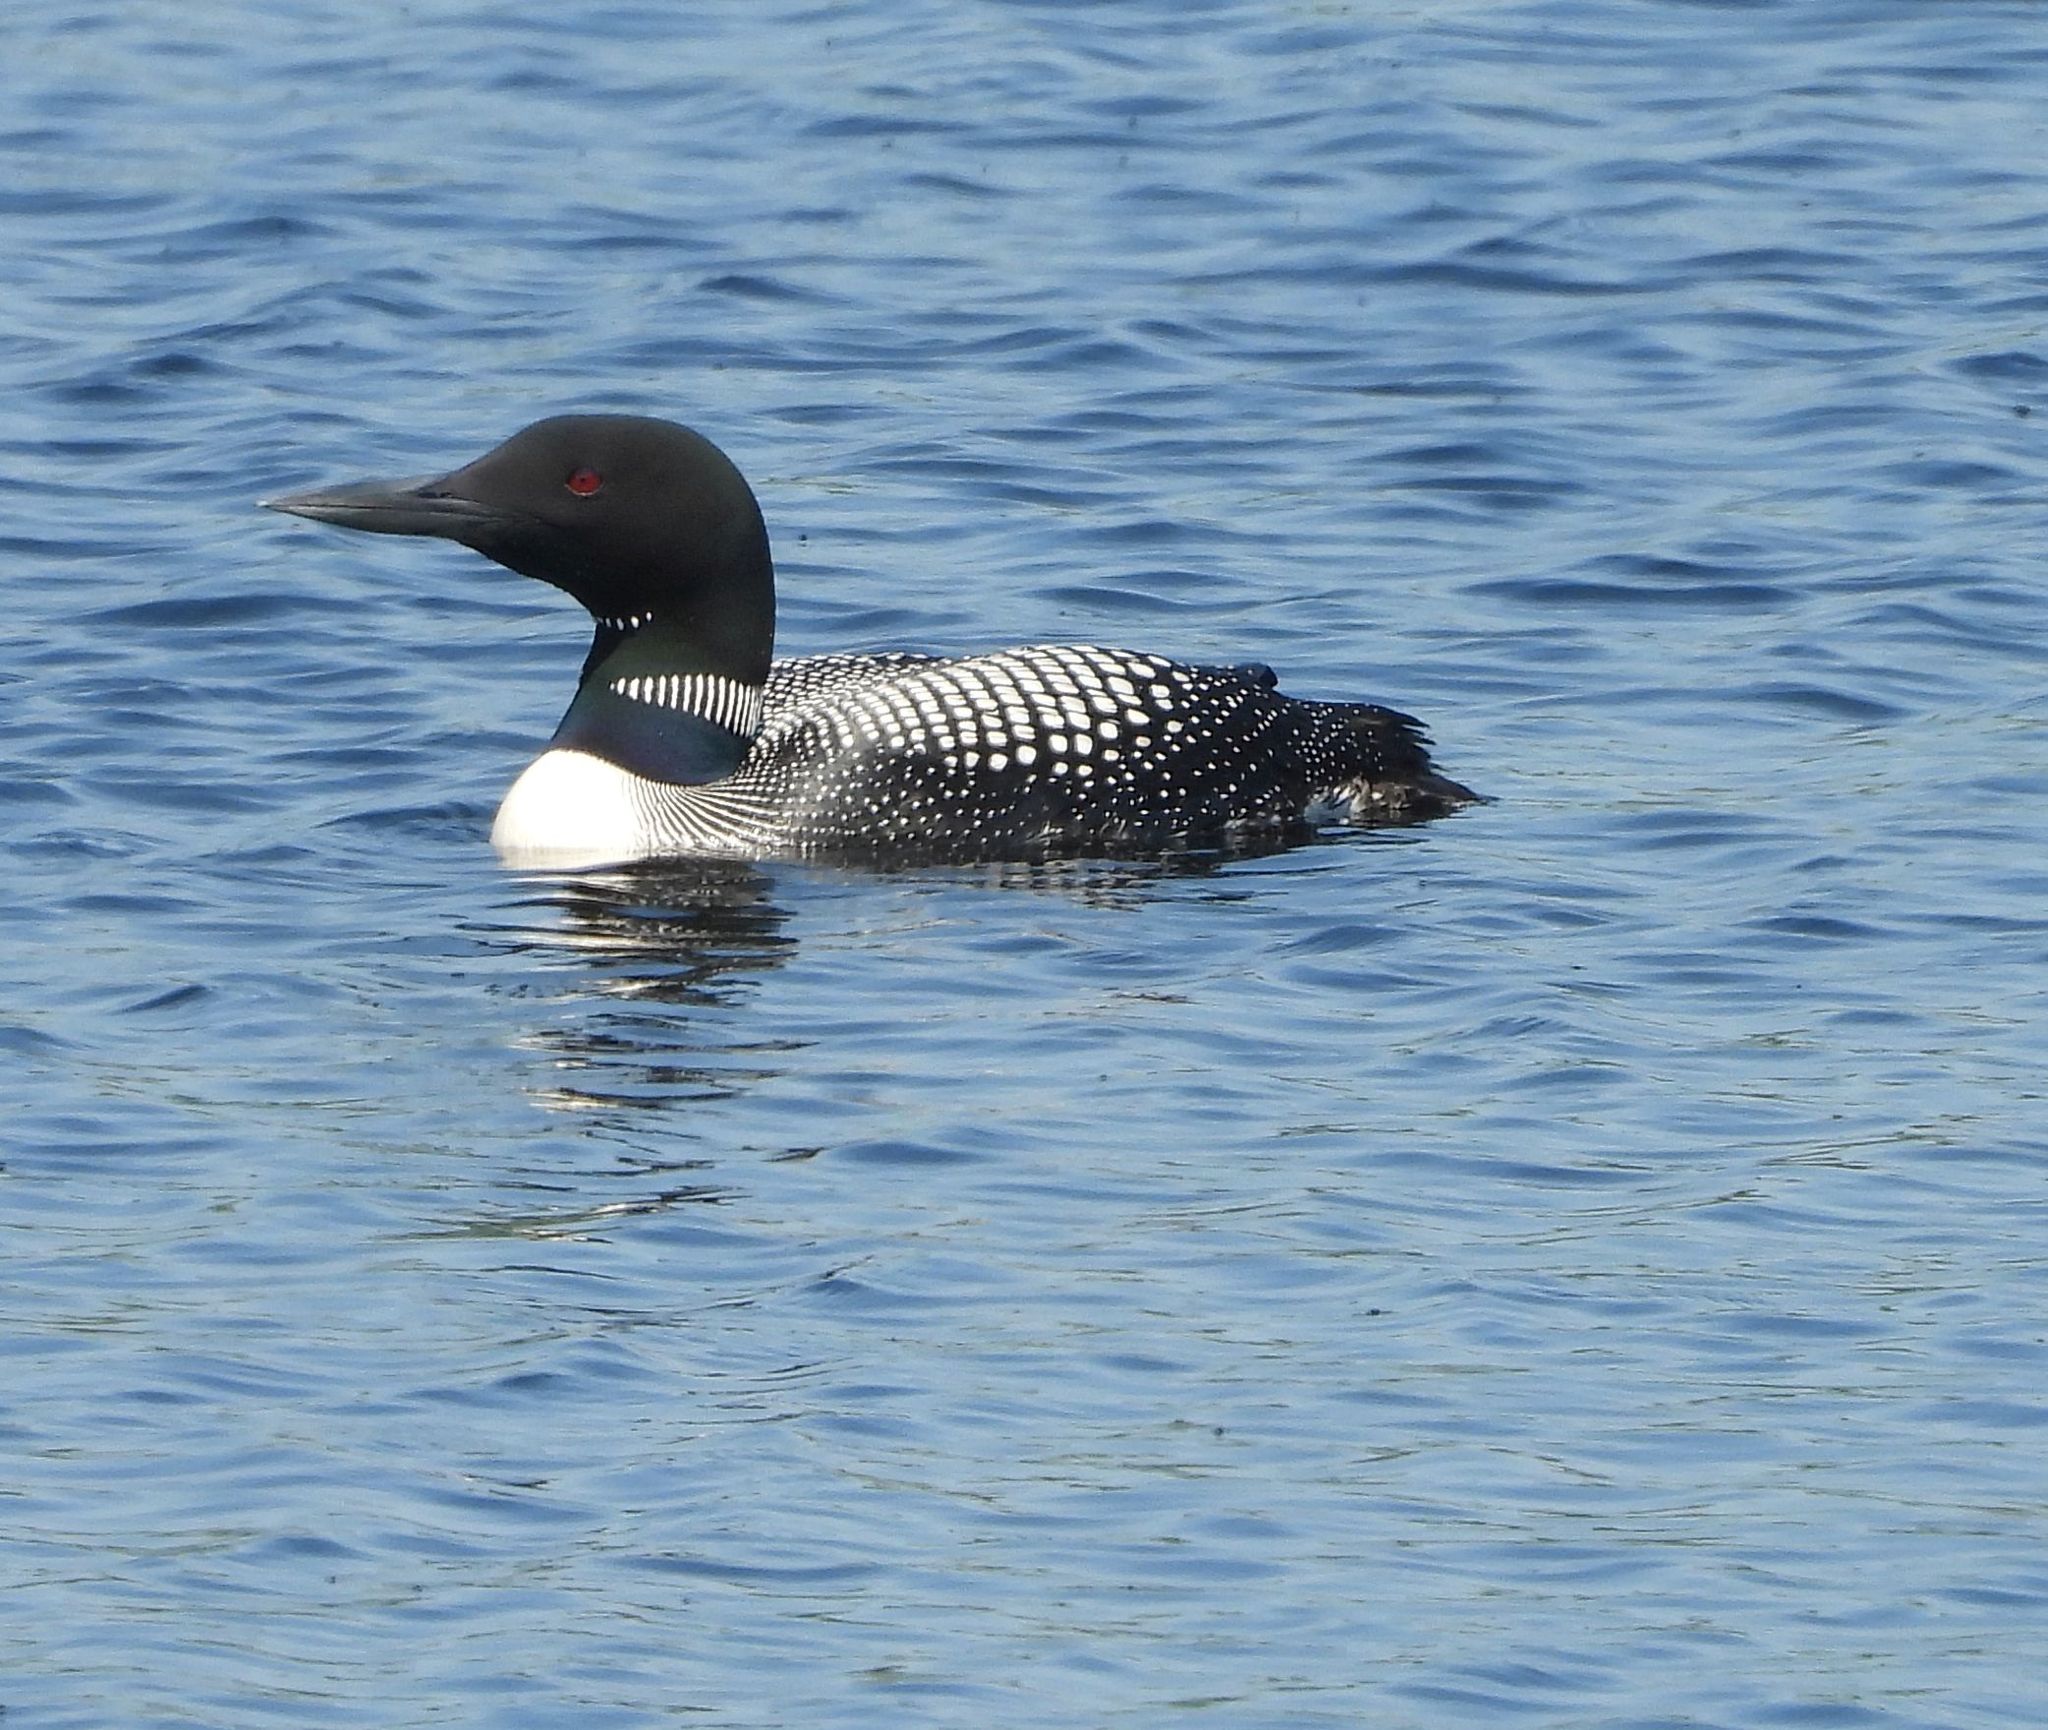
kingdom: Animalia
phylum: Chordata
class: Aves
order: Gaviiformes
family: Gaviidae
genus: Gavia
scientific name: Gavia immer
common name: Common loon
